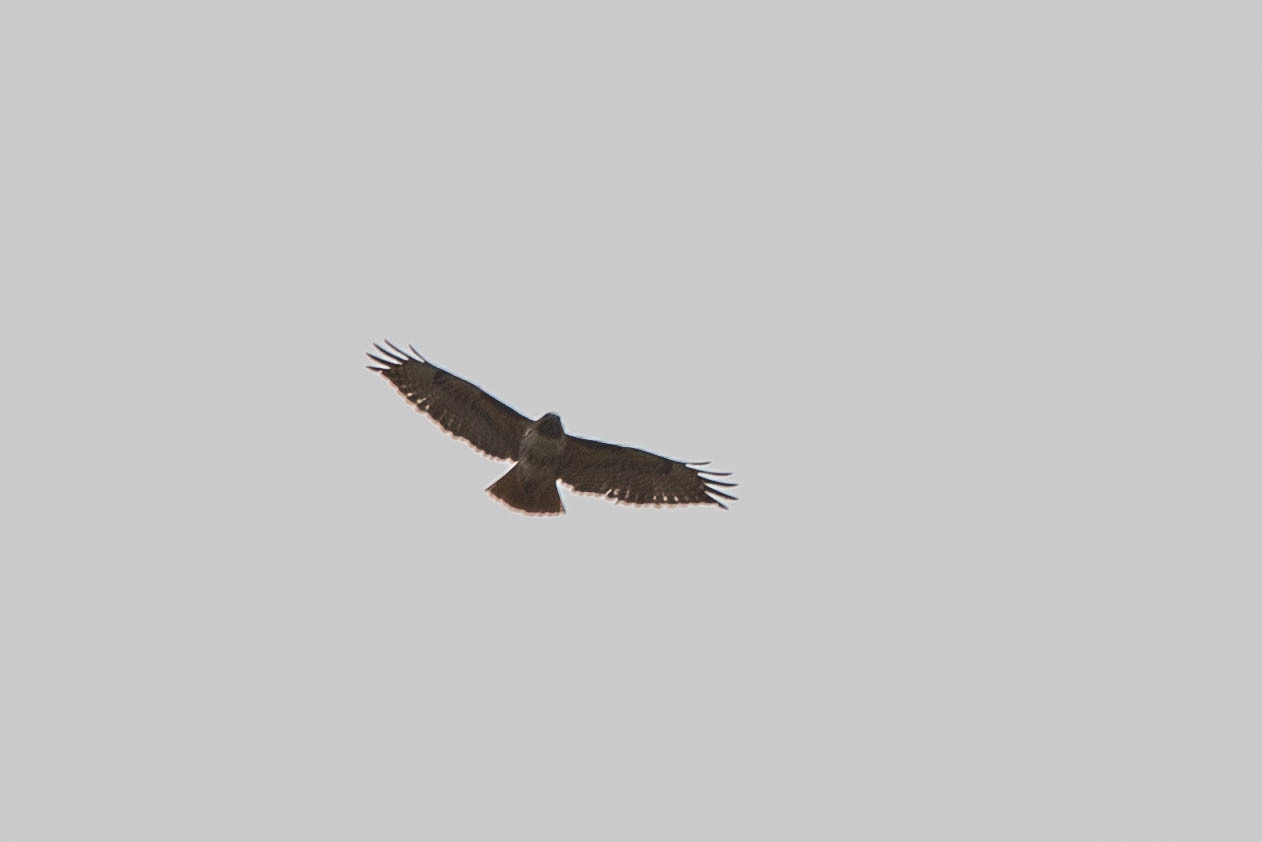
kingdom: Animalia
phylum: Chordata
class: Aves
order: Accipitriformes
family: Accipitridae
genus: Buteo
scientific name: Buteo jamaicensis
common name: Red-tailed hawk
